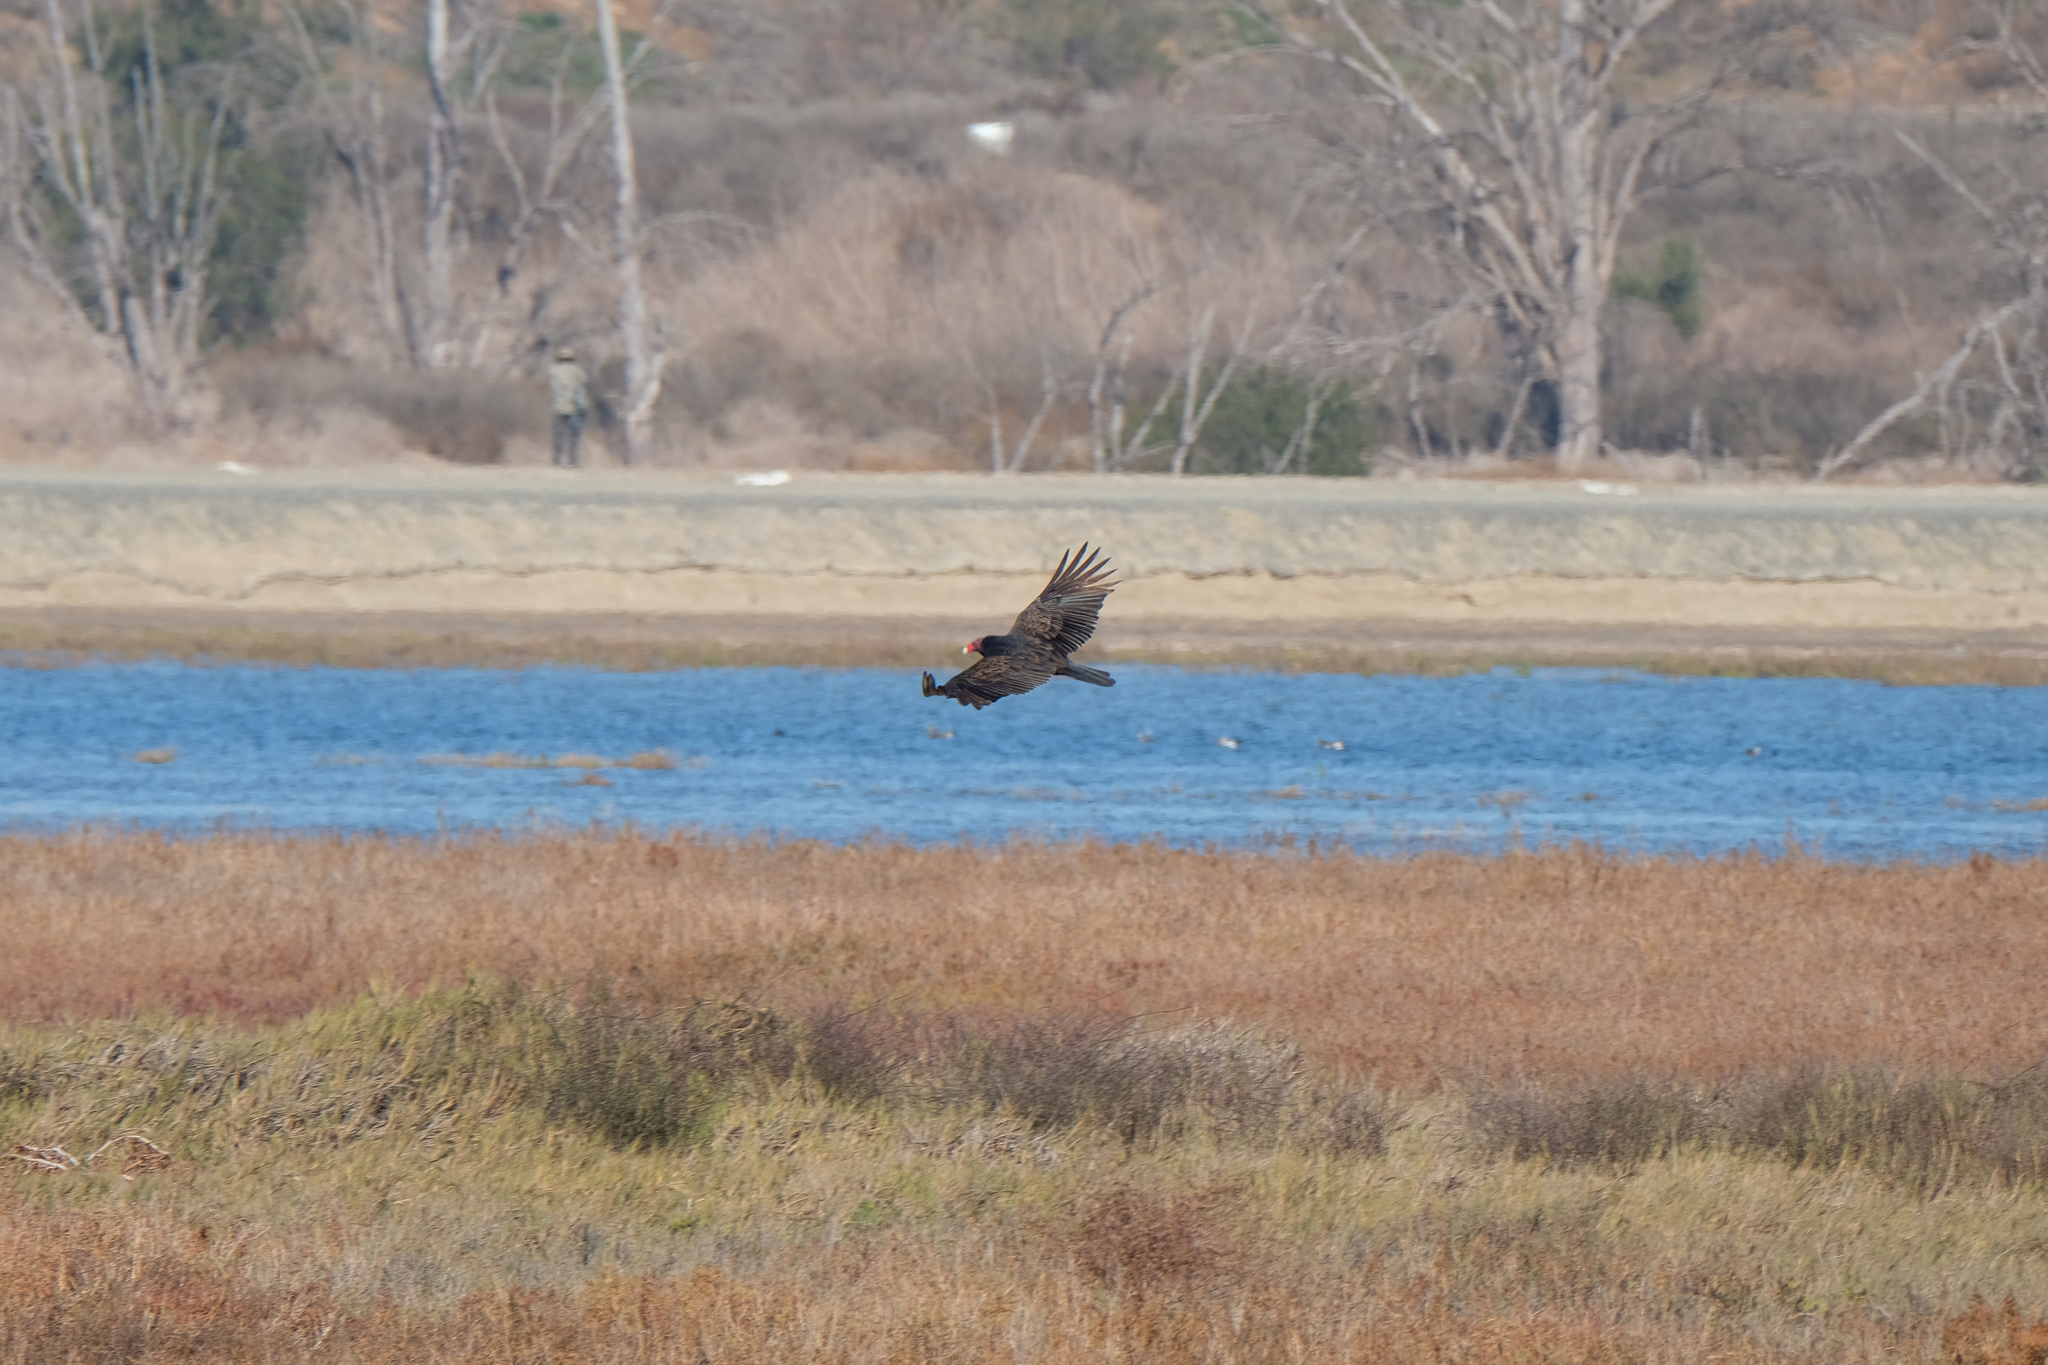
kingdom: Animalia
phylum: Chordata
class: Aves
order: Accipitriformes
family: Cathartidae
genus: Cathartes
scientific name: Cathartes aura
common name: Turkey vulture
